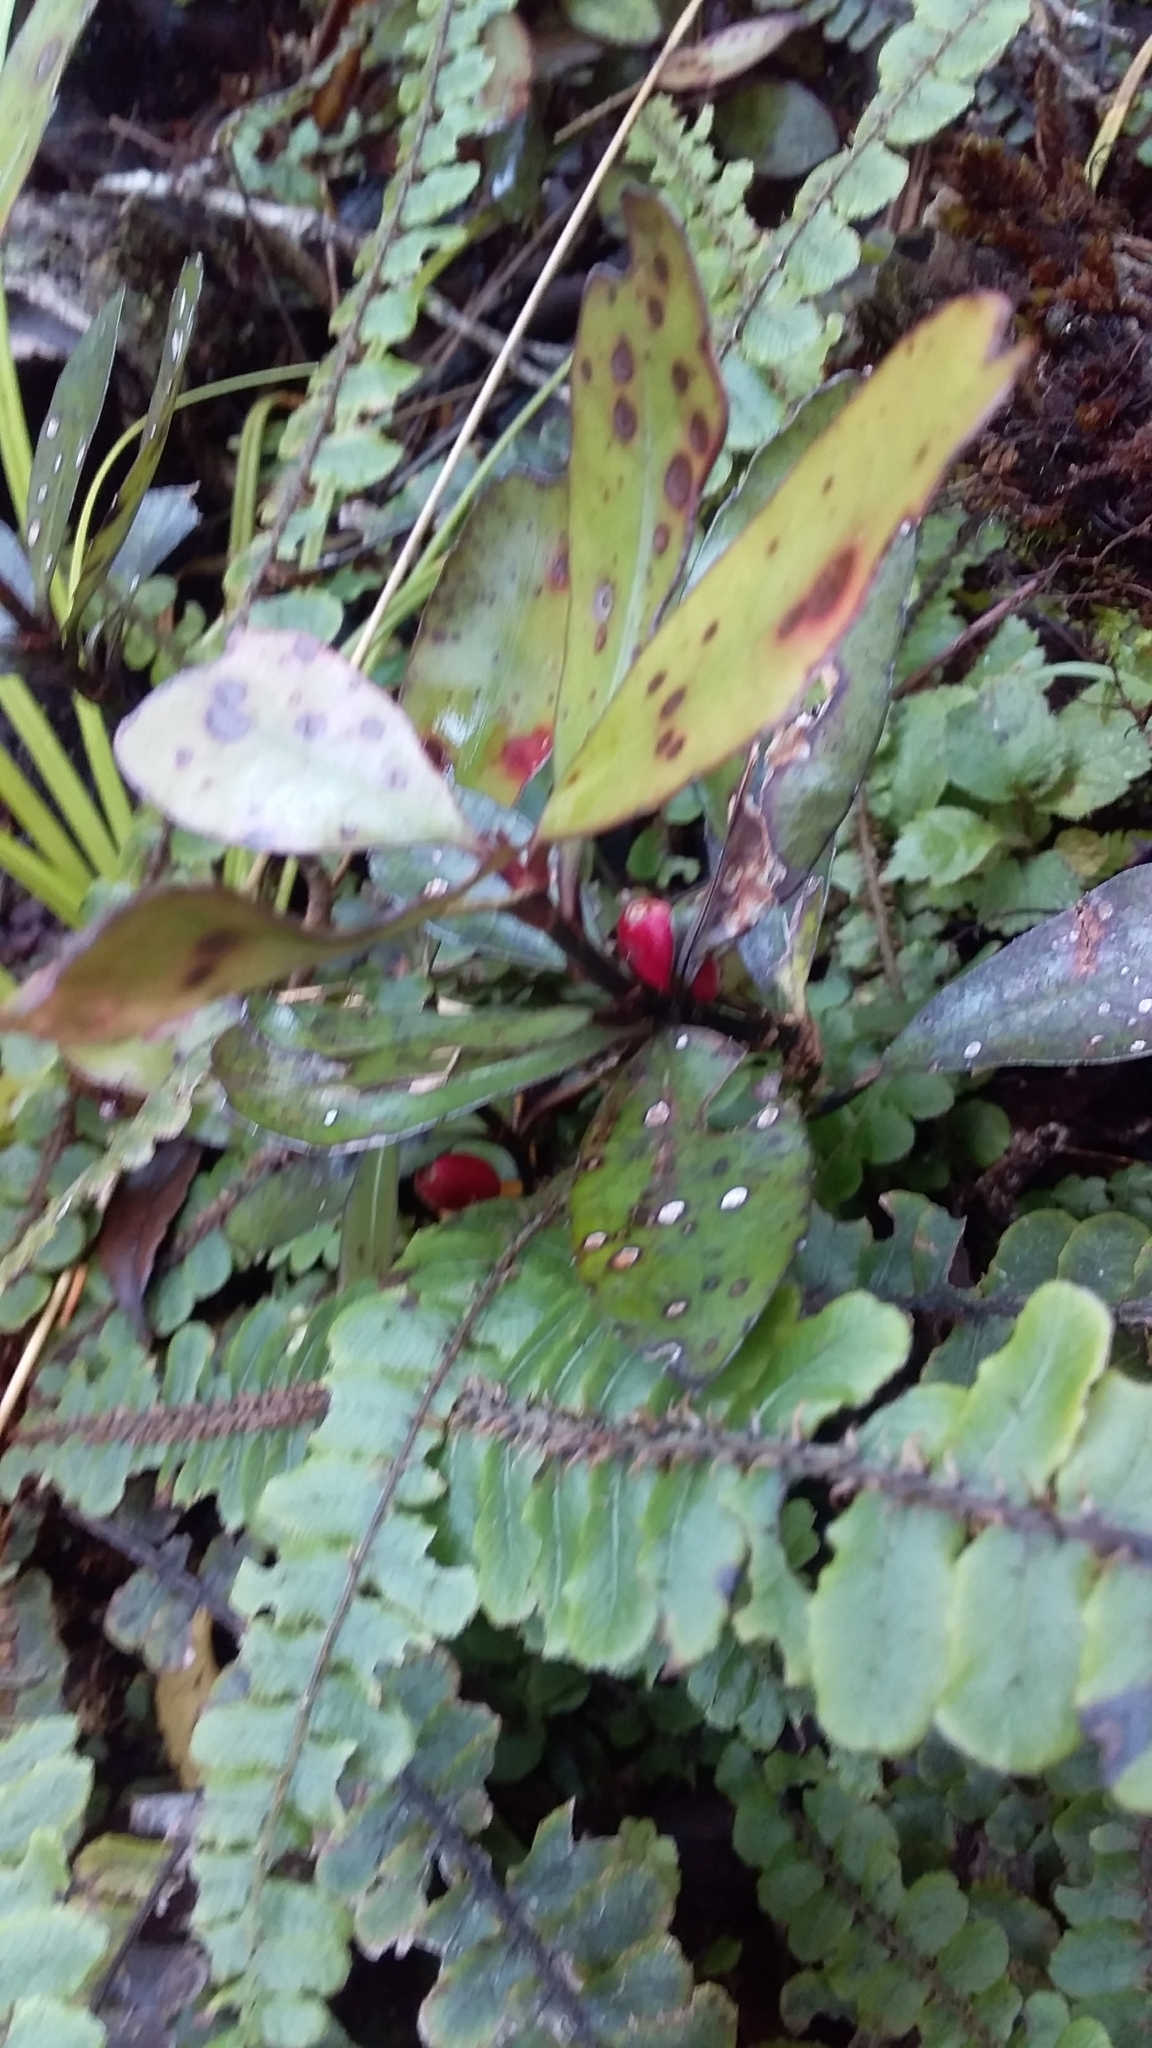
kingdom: Plantae
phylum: Tracheophyta
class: Magnoliopsida
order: Canellales
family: Winteraceae
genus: Pseudowintera
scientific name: Pseudowintera colorata
